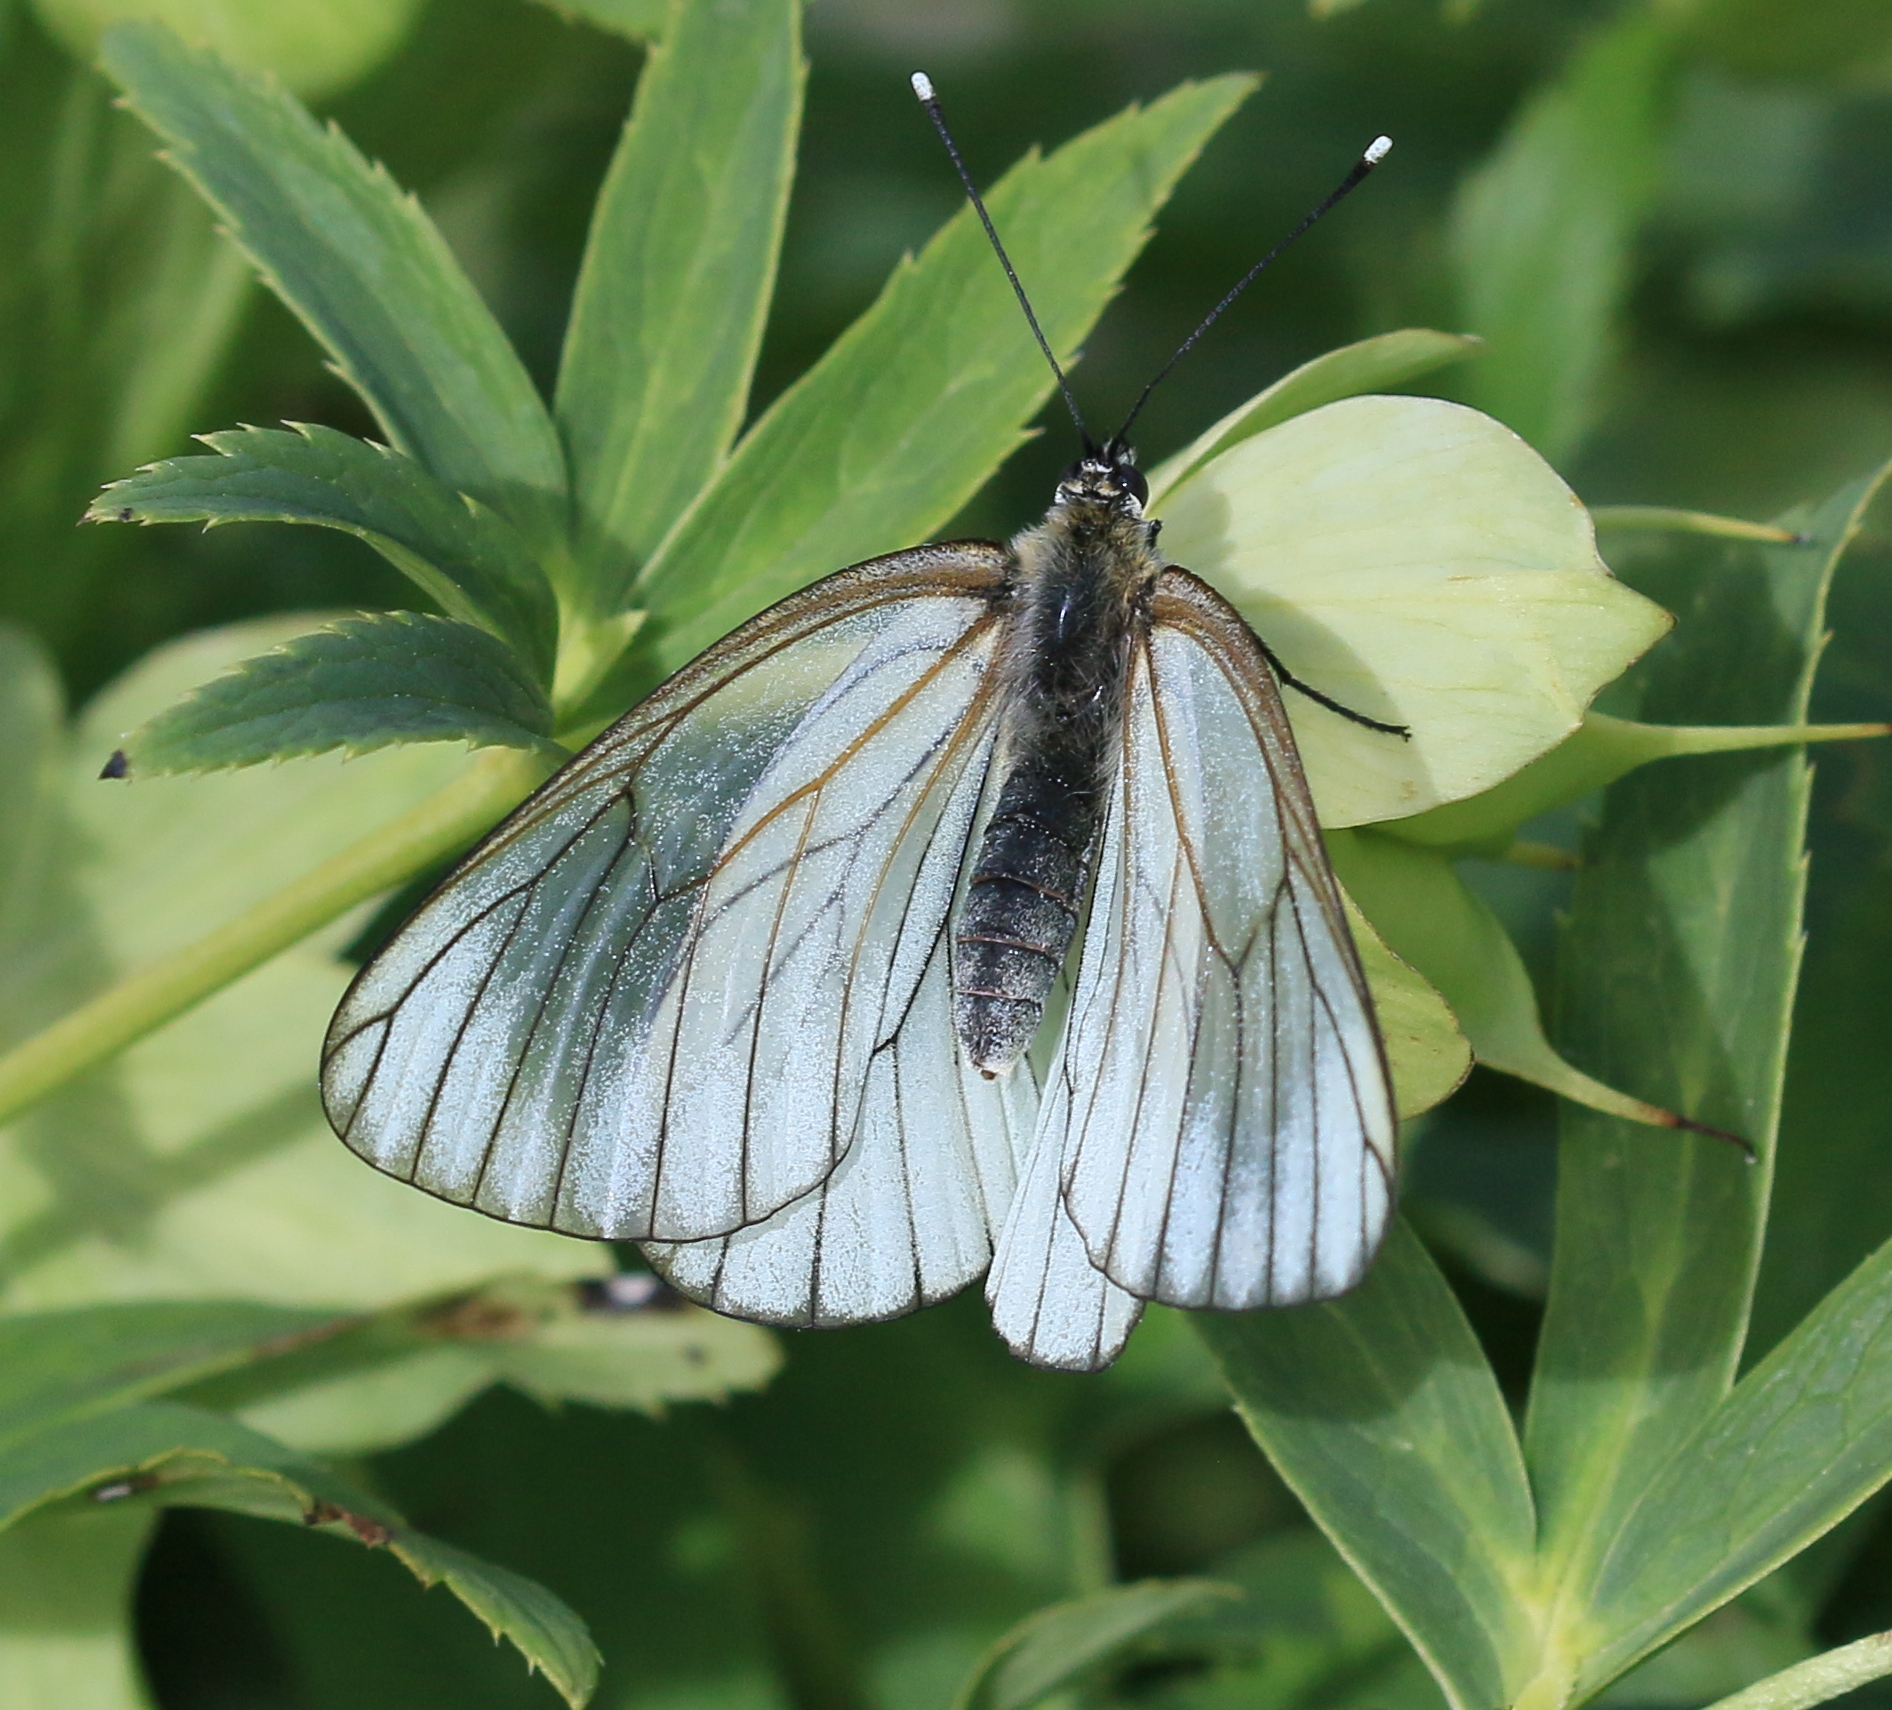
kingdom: Animalia
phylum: Arthropoda
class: Insecta
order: Lepidoptera
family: Pieridae
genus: Aporia
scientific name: Aporia crataegi
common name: Black-veined white
